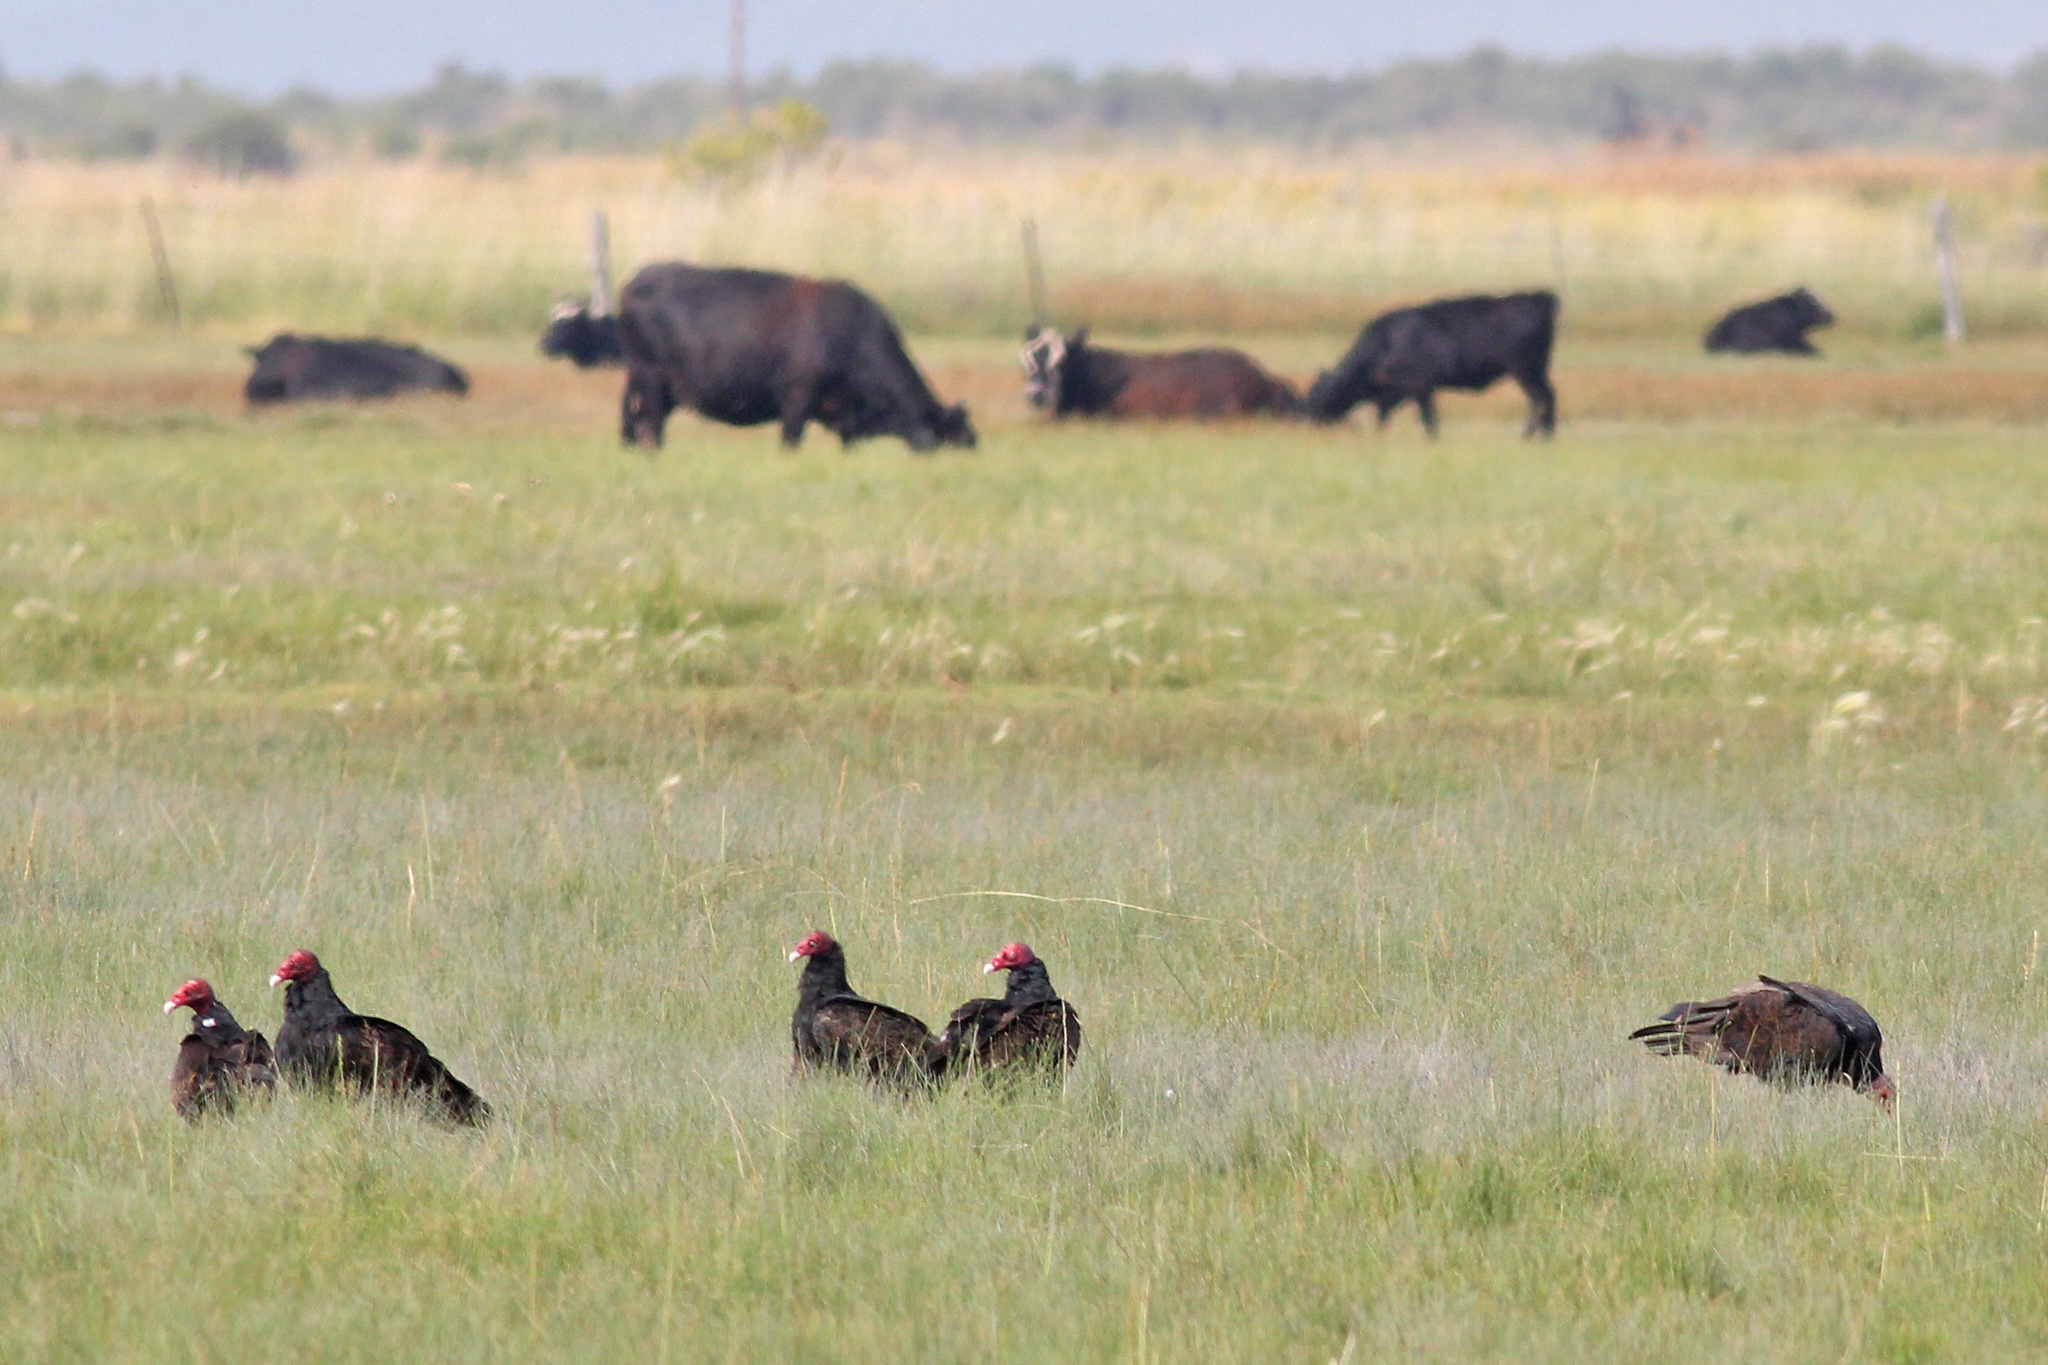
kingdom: Animalia
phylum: Chordata
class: Aves
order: Accipitriformes
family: Cathartidae
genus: Cathartes
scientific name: Cathartes aura
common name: Turkey vulture
